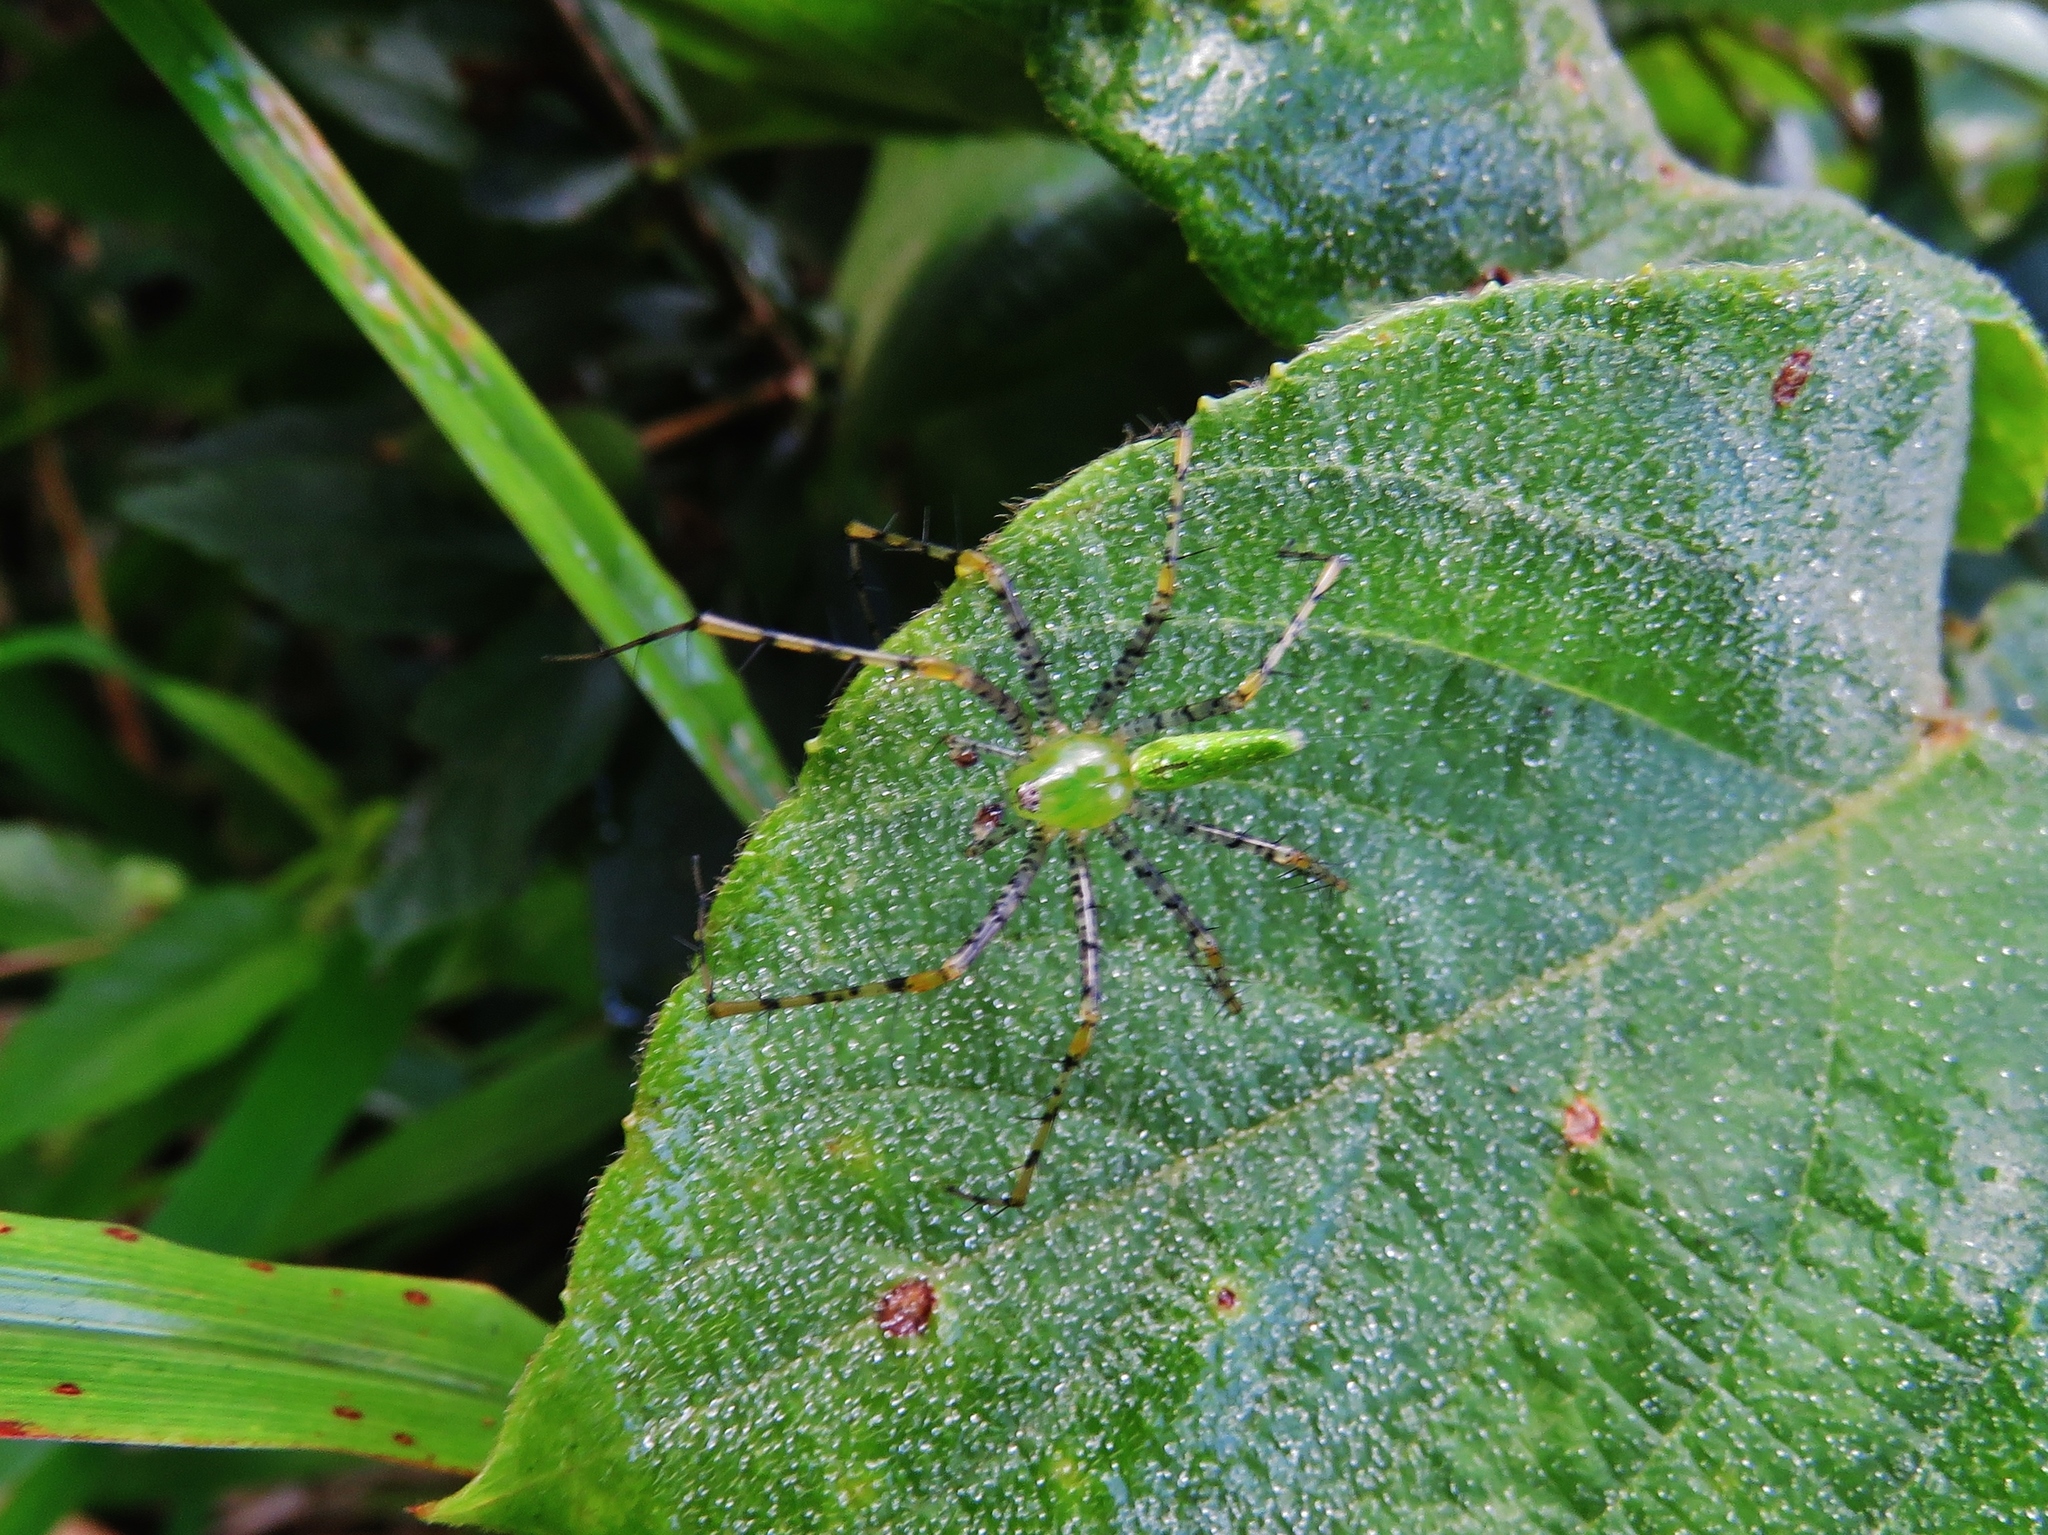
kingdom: Animalia
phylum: Arthropoda
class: Arachnida
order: Araneae
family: Oxyopidae
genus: Peucetia
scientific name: Peucetia viridans
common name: Lynx spiders
